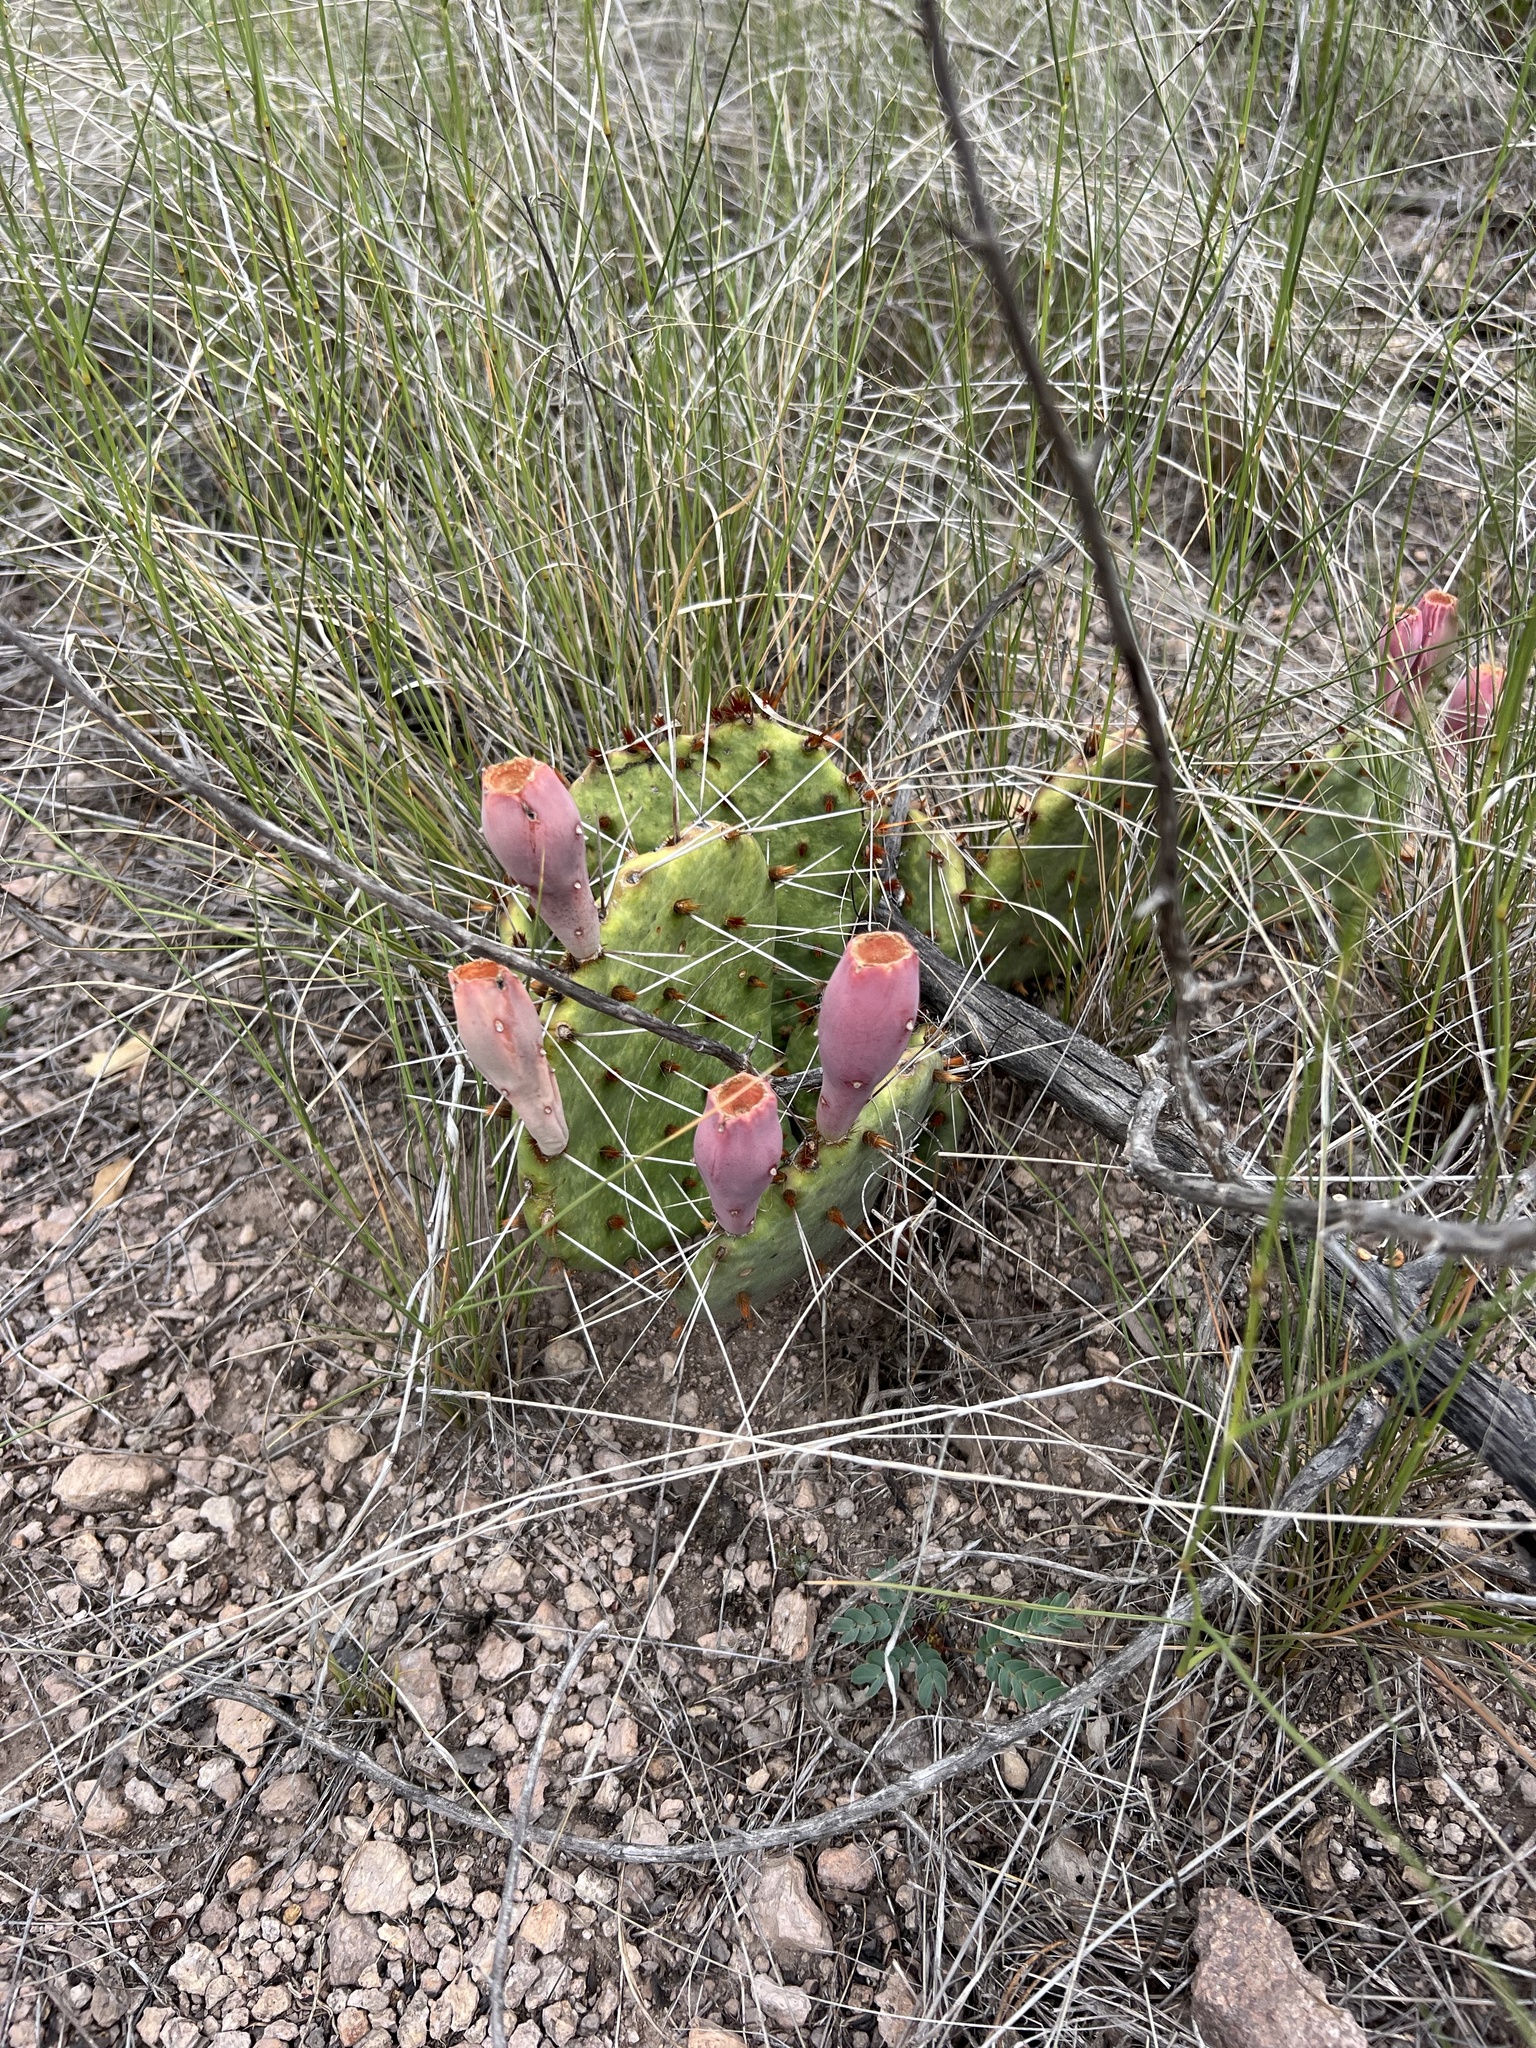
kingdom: Plantae
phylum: Tracheophyta
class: Magnoliopsida
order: Caryophyllales
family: Cactaceae
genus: Opuntia
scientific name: Opuntia macrorhiza
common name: Grassland pricklypear
